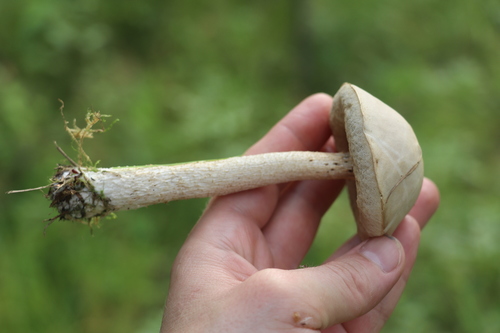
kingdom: Fungi
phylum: Basidiomycota
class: Agaricomycetes
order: Boletales
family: Boletaceae
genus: Leccinum
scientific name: Leccinum holopus
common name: Ghost bolete
